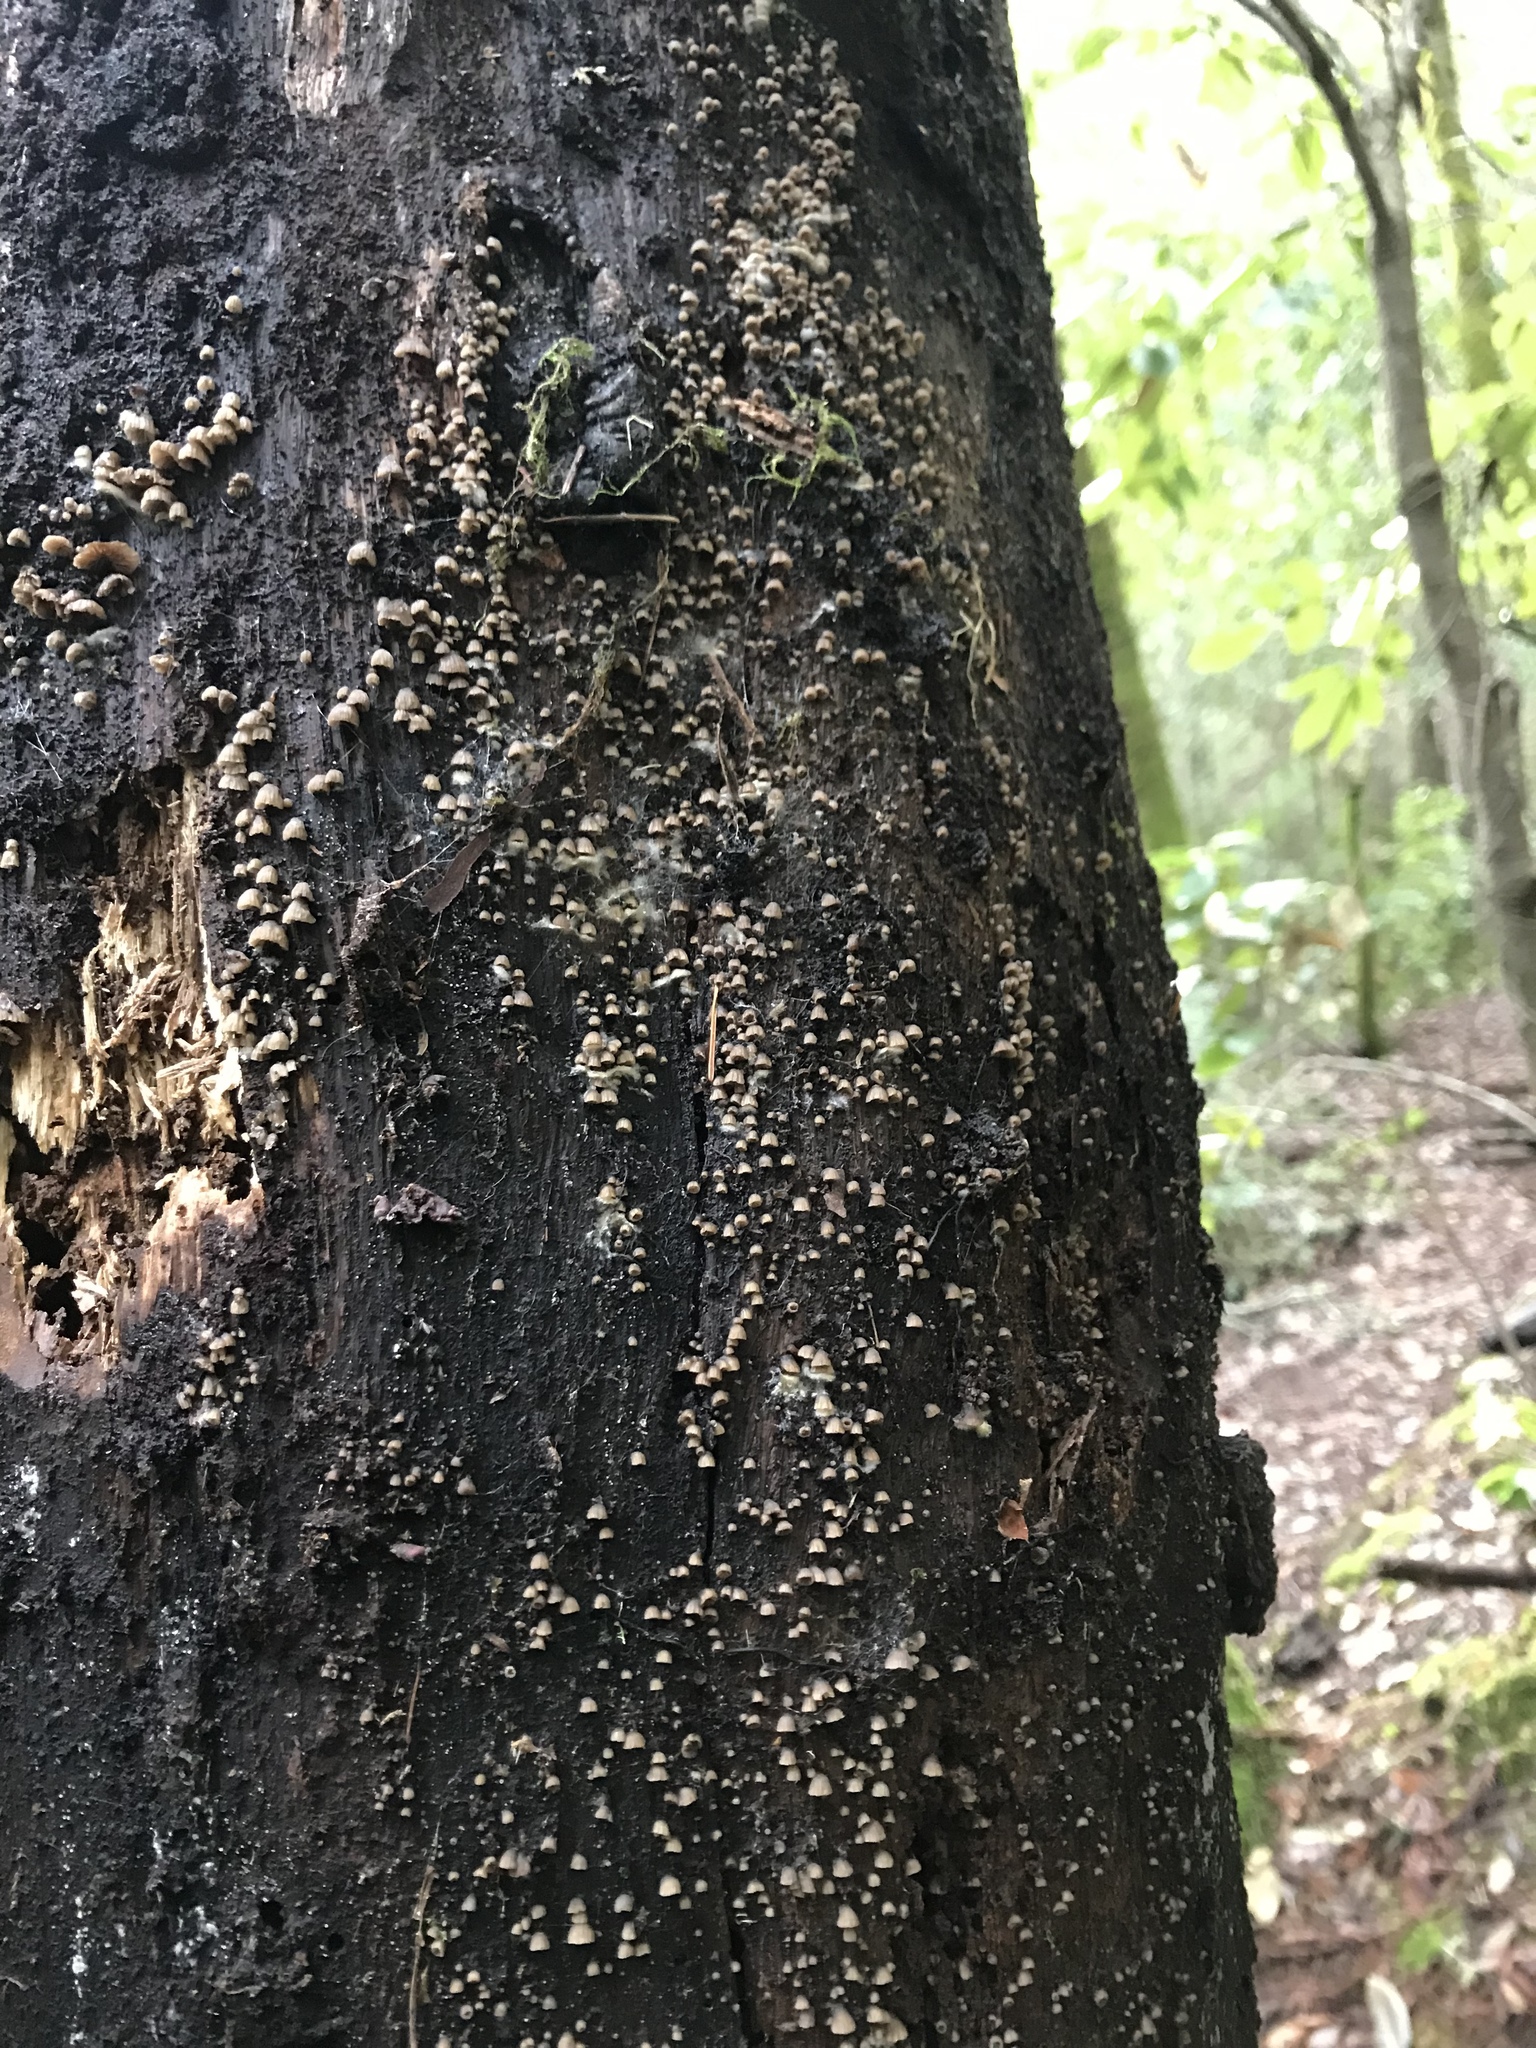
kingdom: Fungi
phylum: Basidiomycota
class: Agaricomycetes
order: Agaricales
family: Pleurotaceae
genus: Resupinatus
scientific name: Resupinatus striatulus
